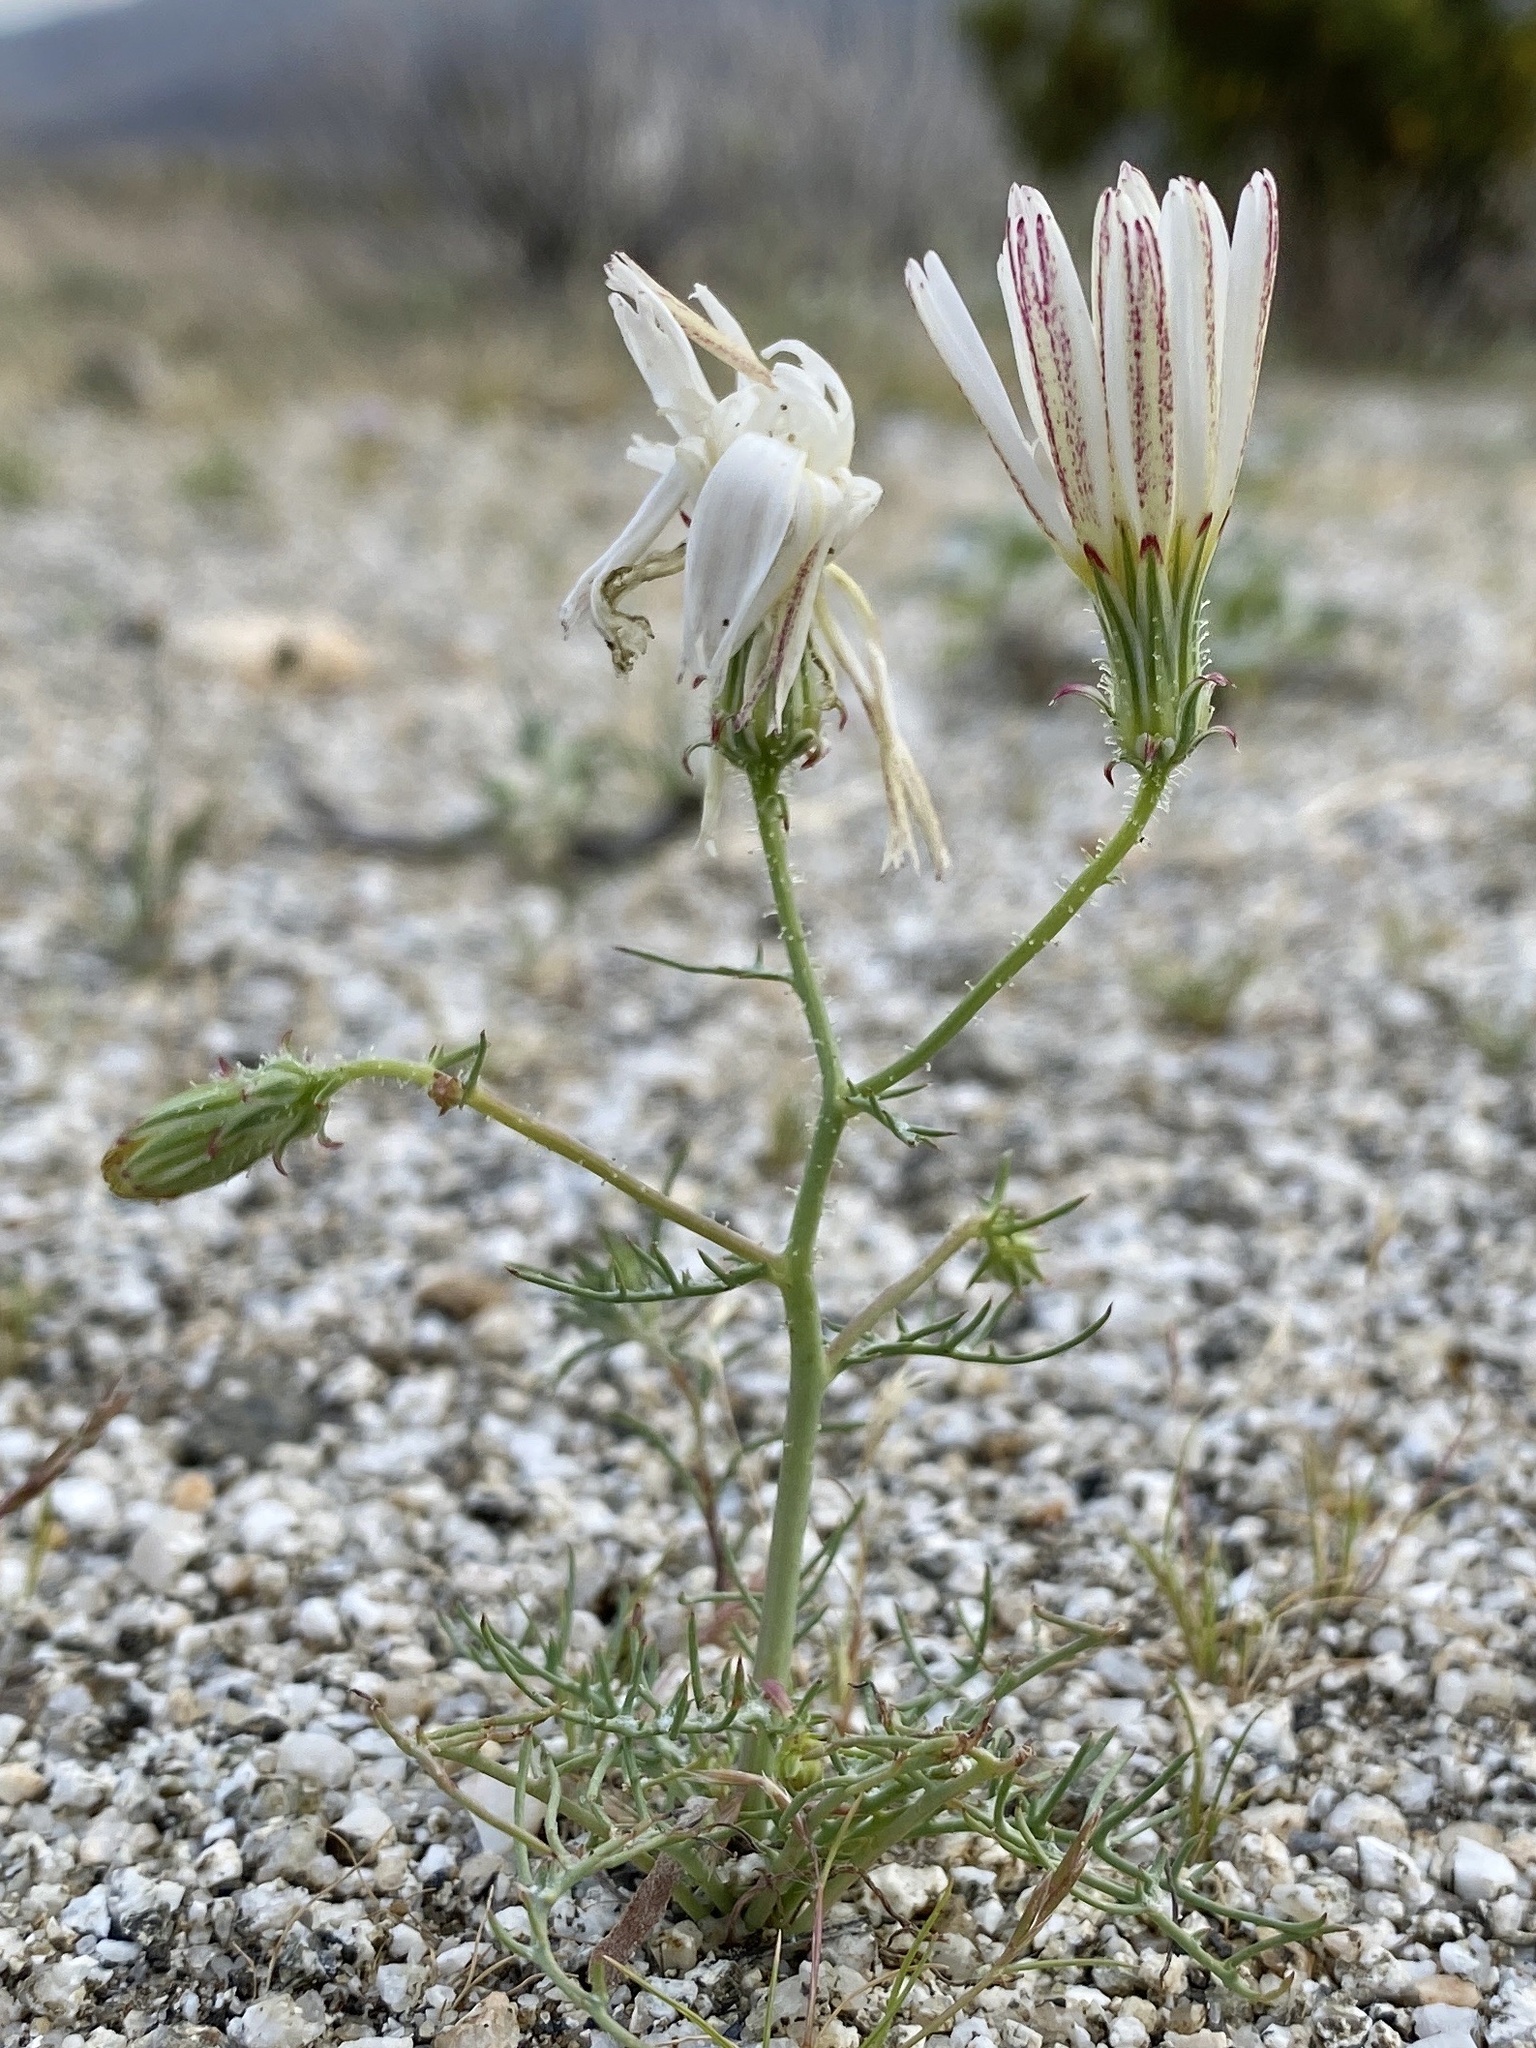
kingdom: Plantae
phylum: Tracheophyta
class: Magnoliopsida
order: Asterales
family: Asteraceae
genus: Calycoseris
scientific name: Calycoseris wrightii
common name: White tackstem
